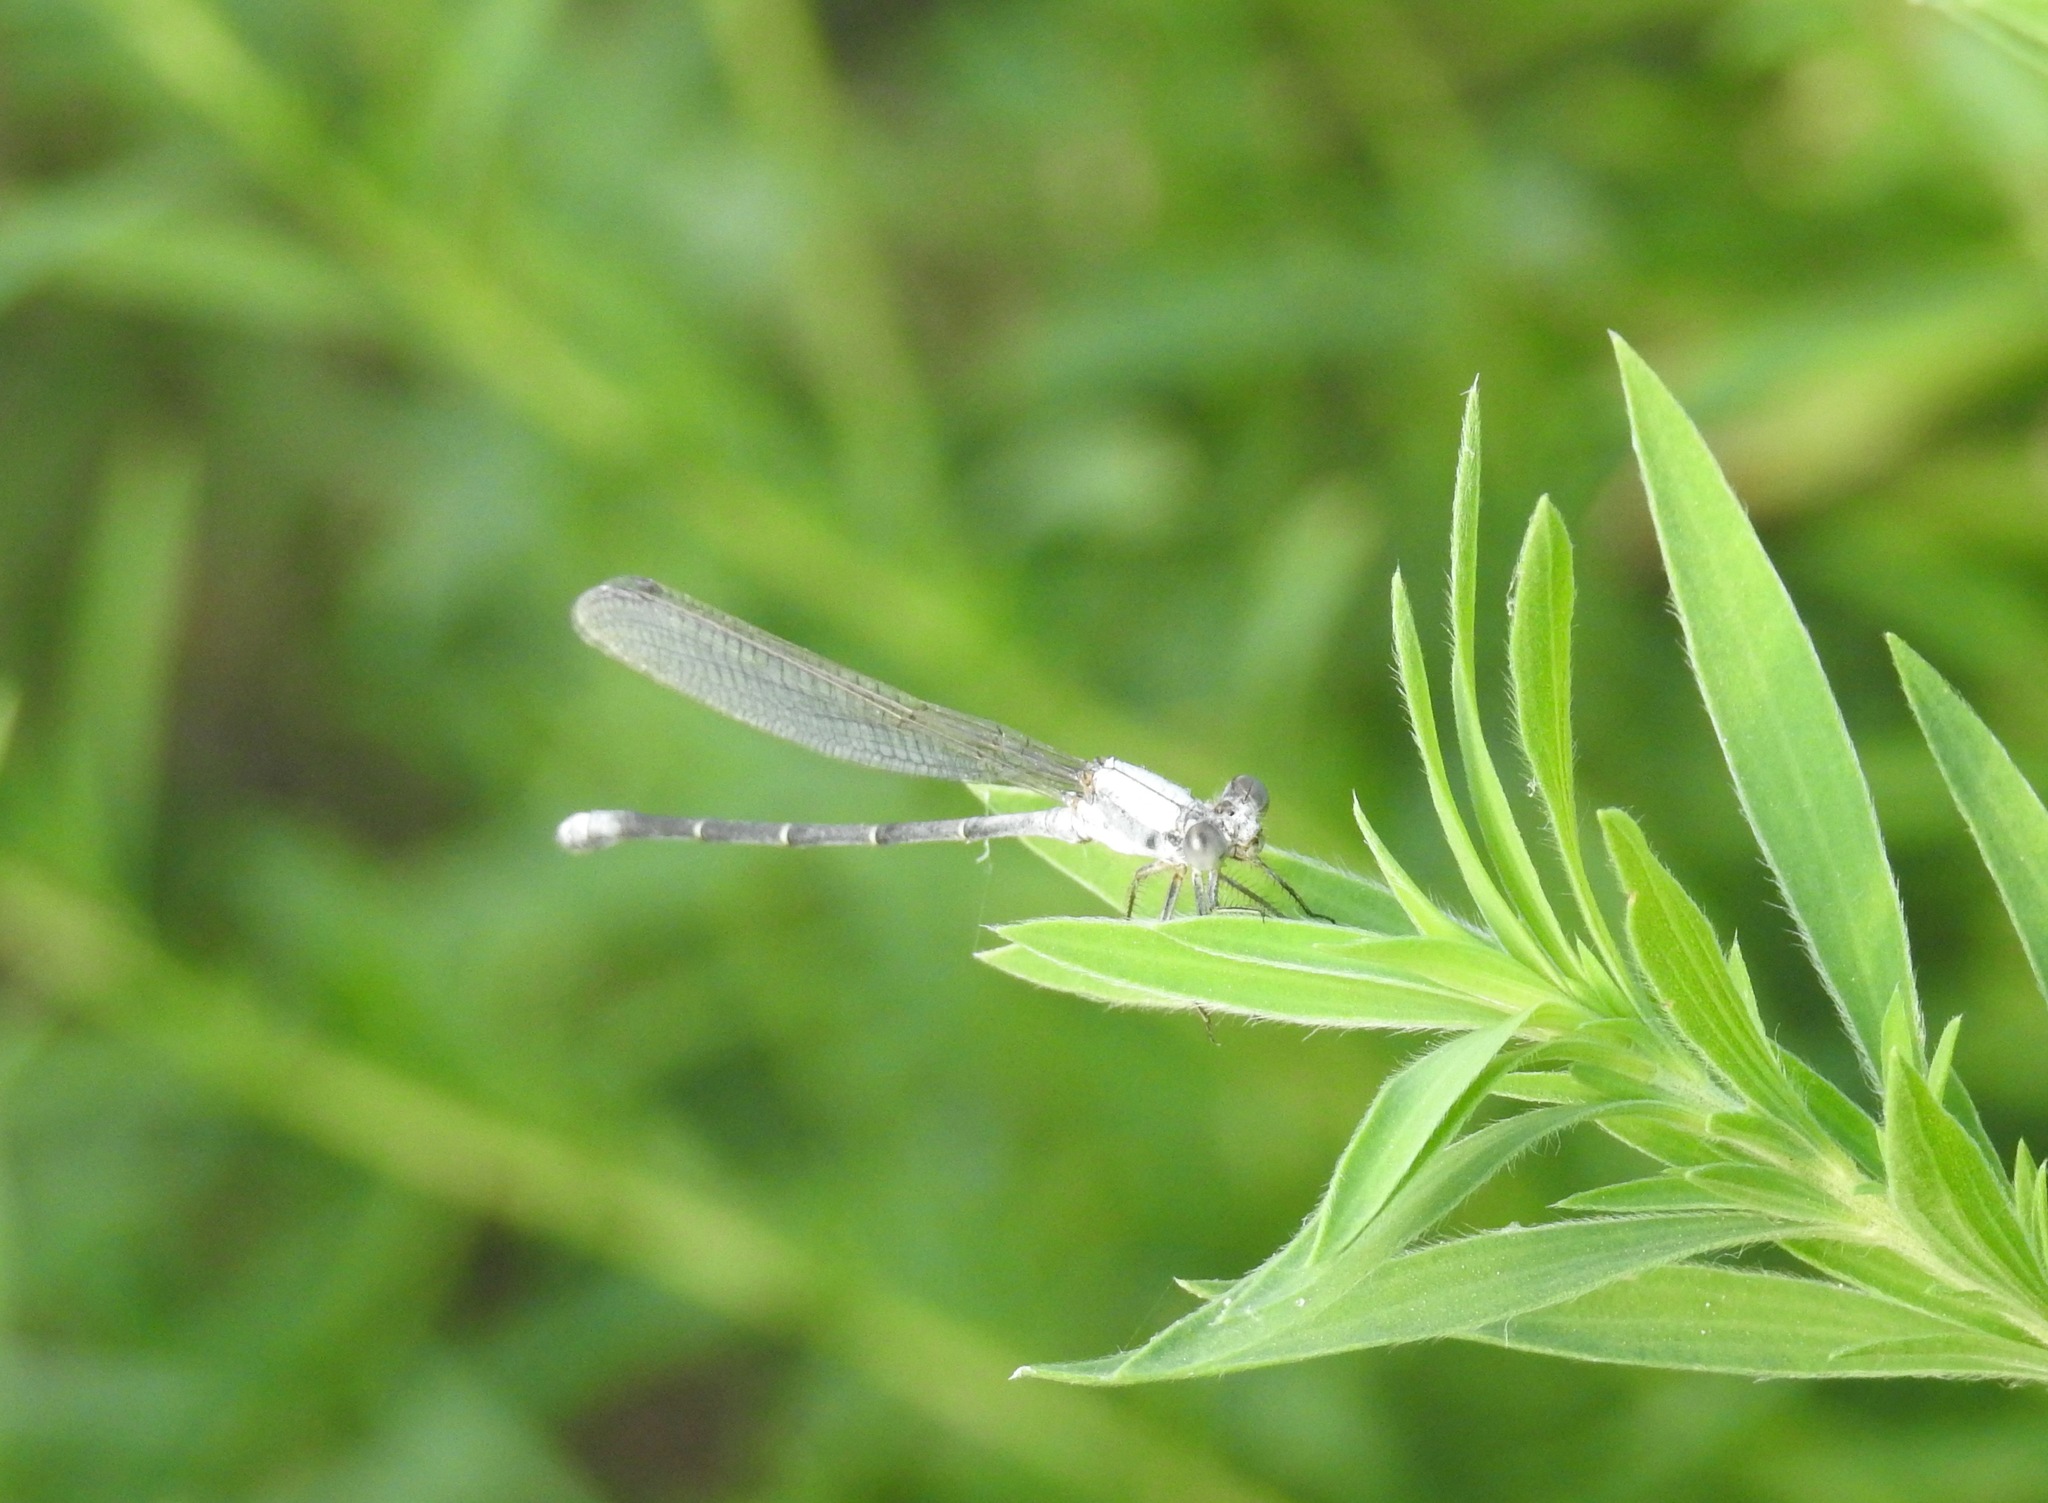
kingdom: Animalia
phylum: Arthropoda
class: Insecta
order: Odonata
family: Coenagrionidae
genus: Argia
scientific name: Argia moesta
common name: Powdered dancer
